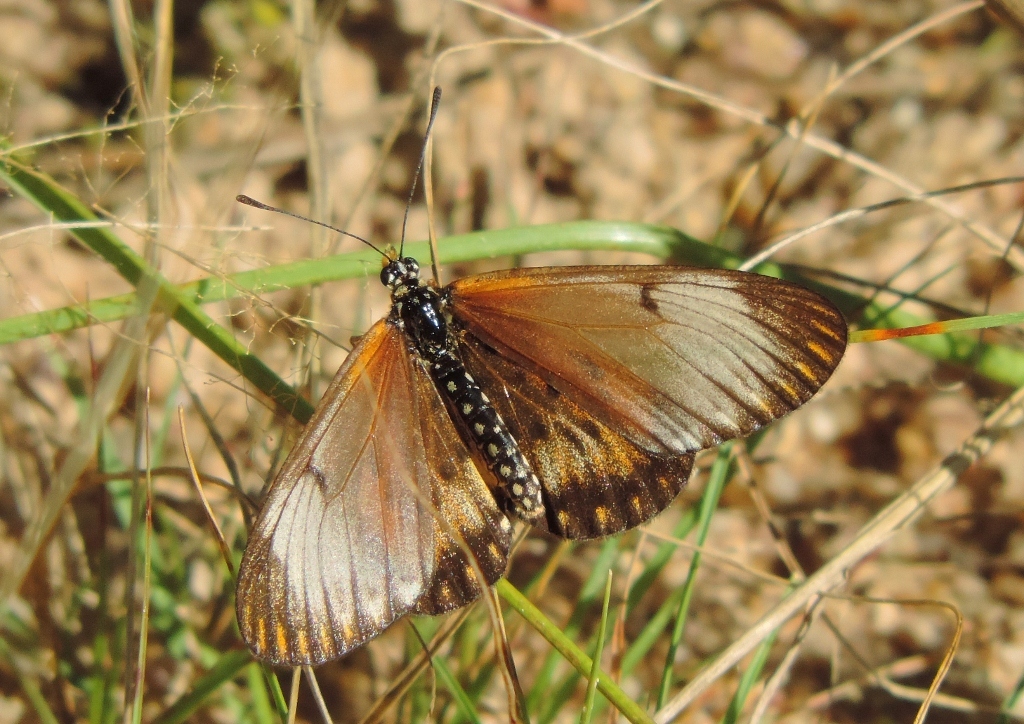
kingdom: Animalia
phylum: Arthropoda
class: Insecta
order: Lepidoptera
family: Nymphalidae
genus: Acraea
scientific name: Acraea Telchinia serena
